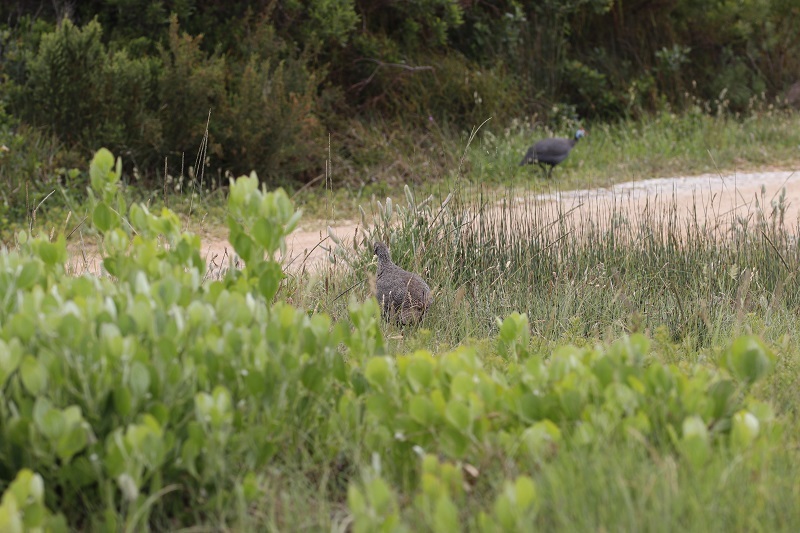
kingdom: Animalia
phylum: Chordata
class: Aves
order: Galliformes
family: Numididae
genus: Numida
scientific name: Numida meleagris
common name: Helmeted guineafowl
